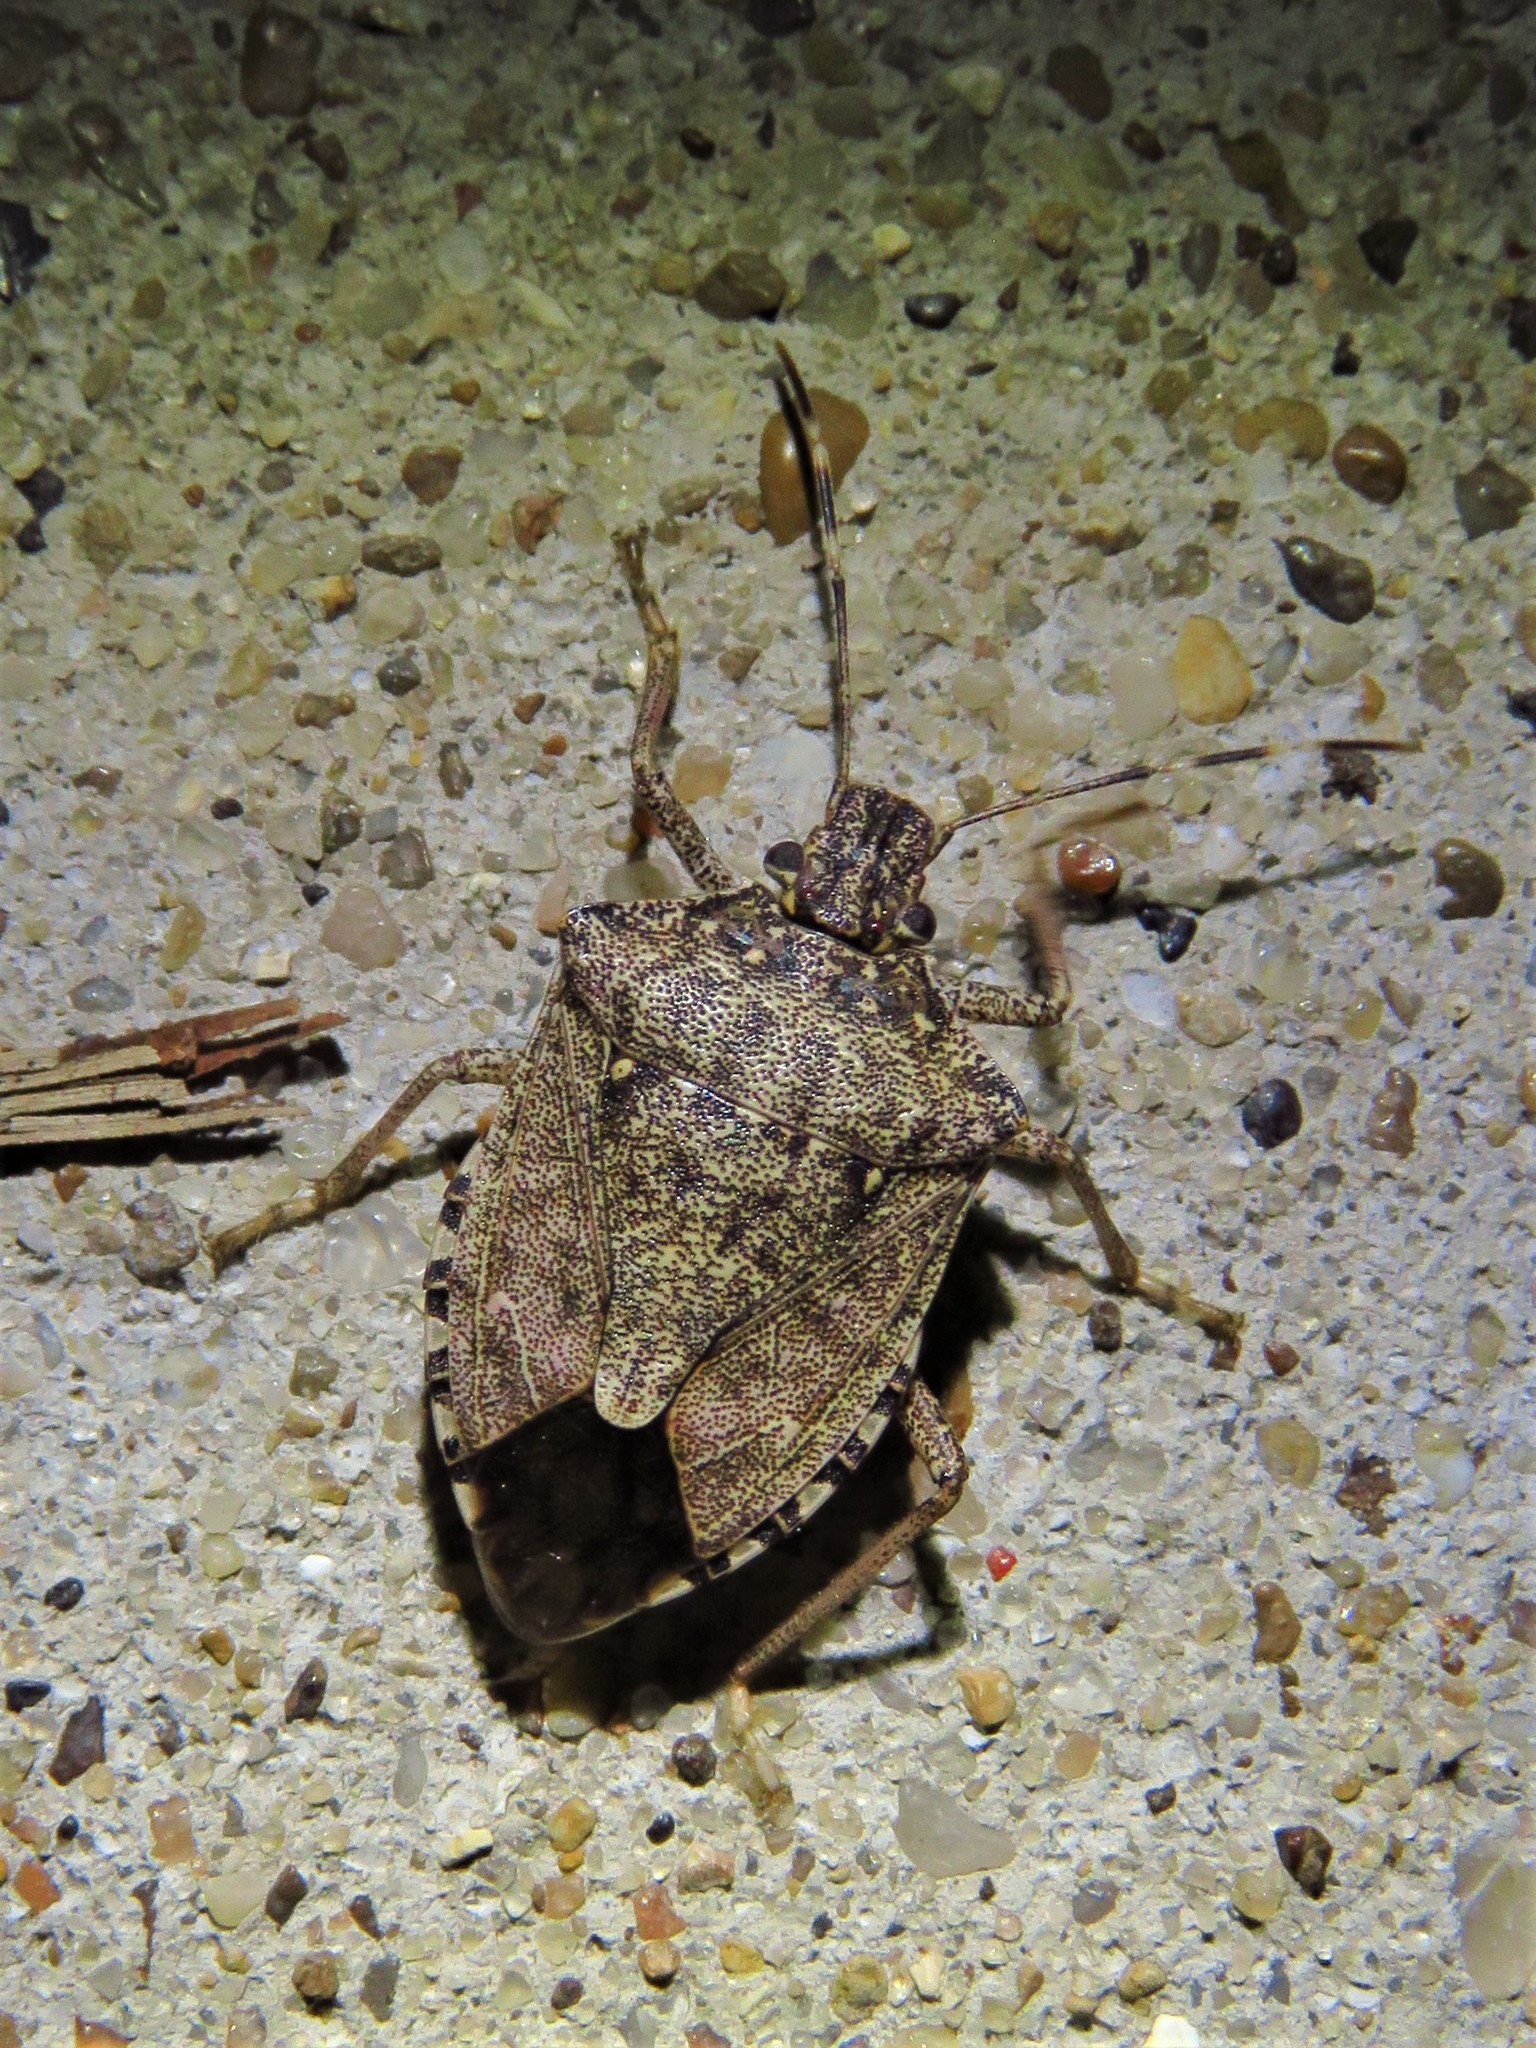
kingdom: Animalia
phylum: Arthropoda
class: Insecta
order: Hemiptera
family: Pentatomidae
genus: Halyomorpha
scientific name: Halyomorpha halys
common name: Brown marmorated stink bug
